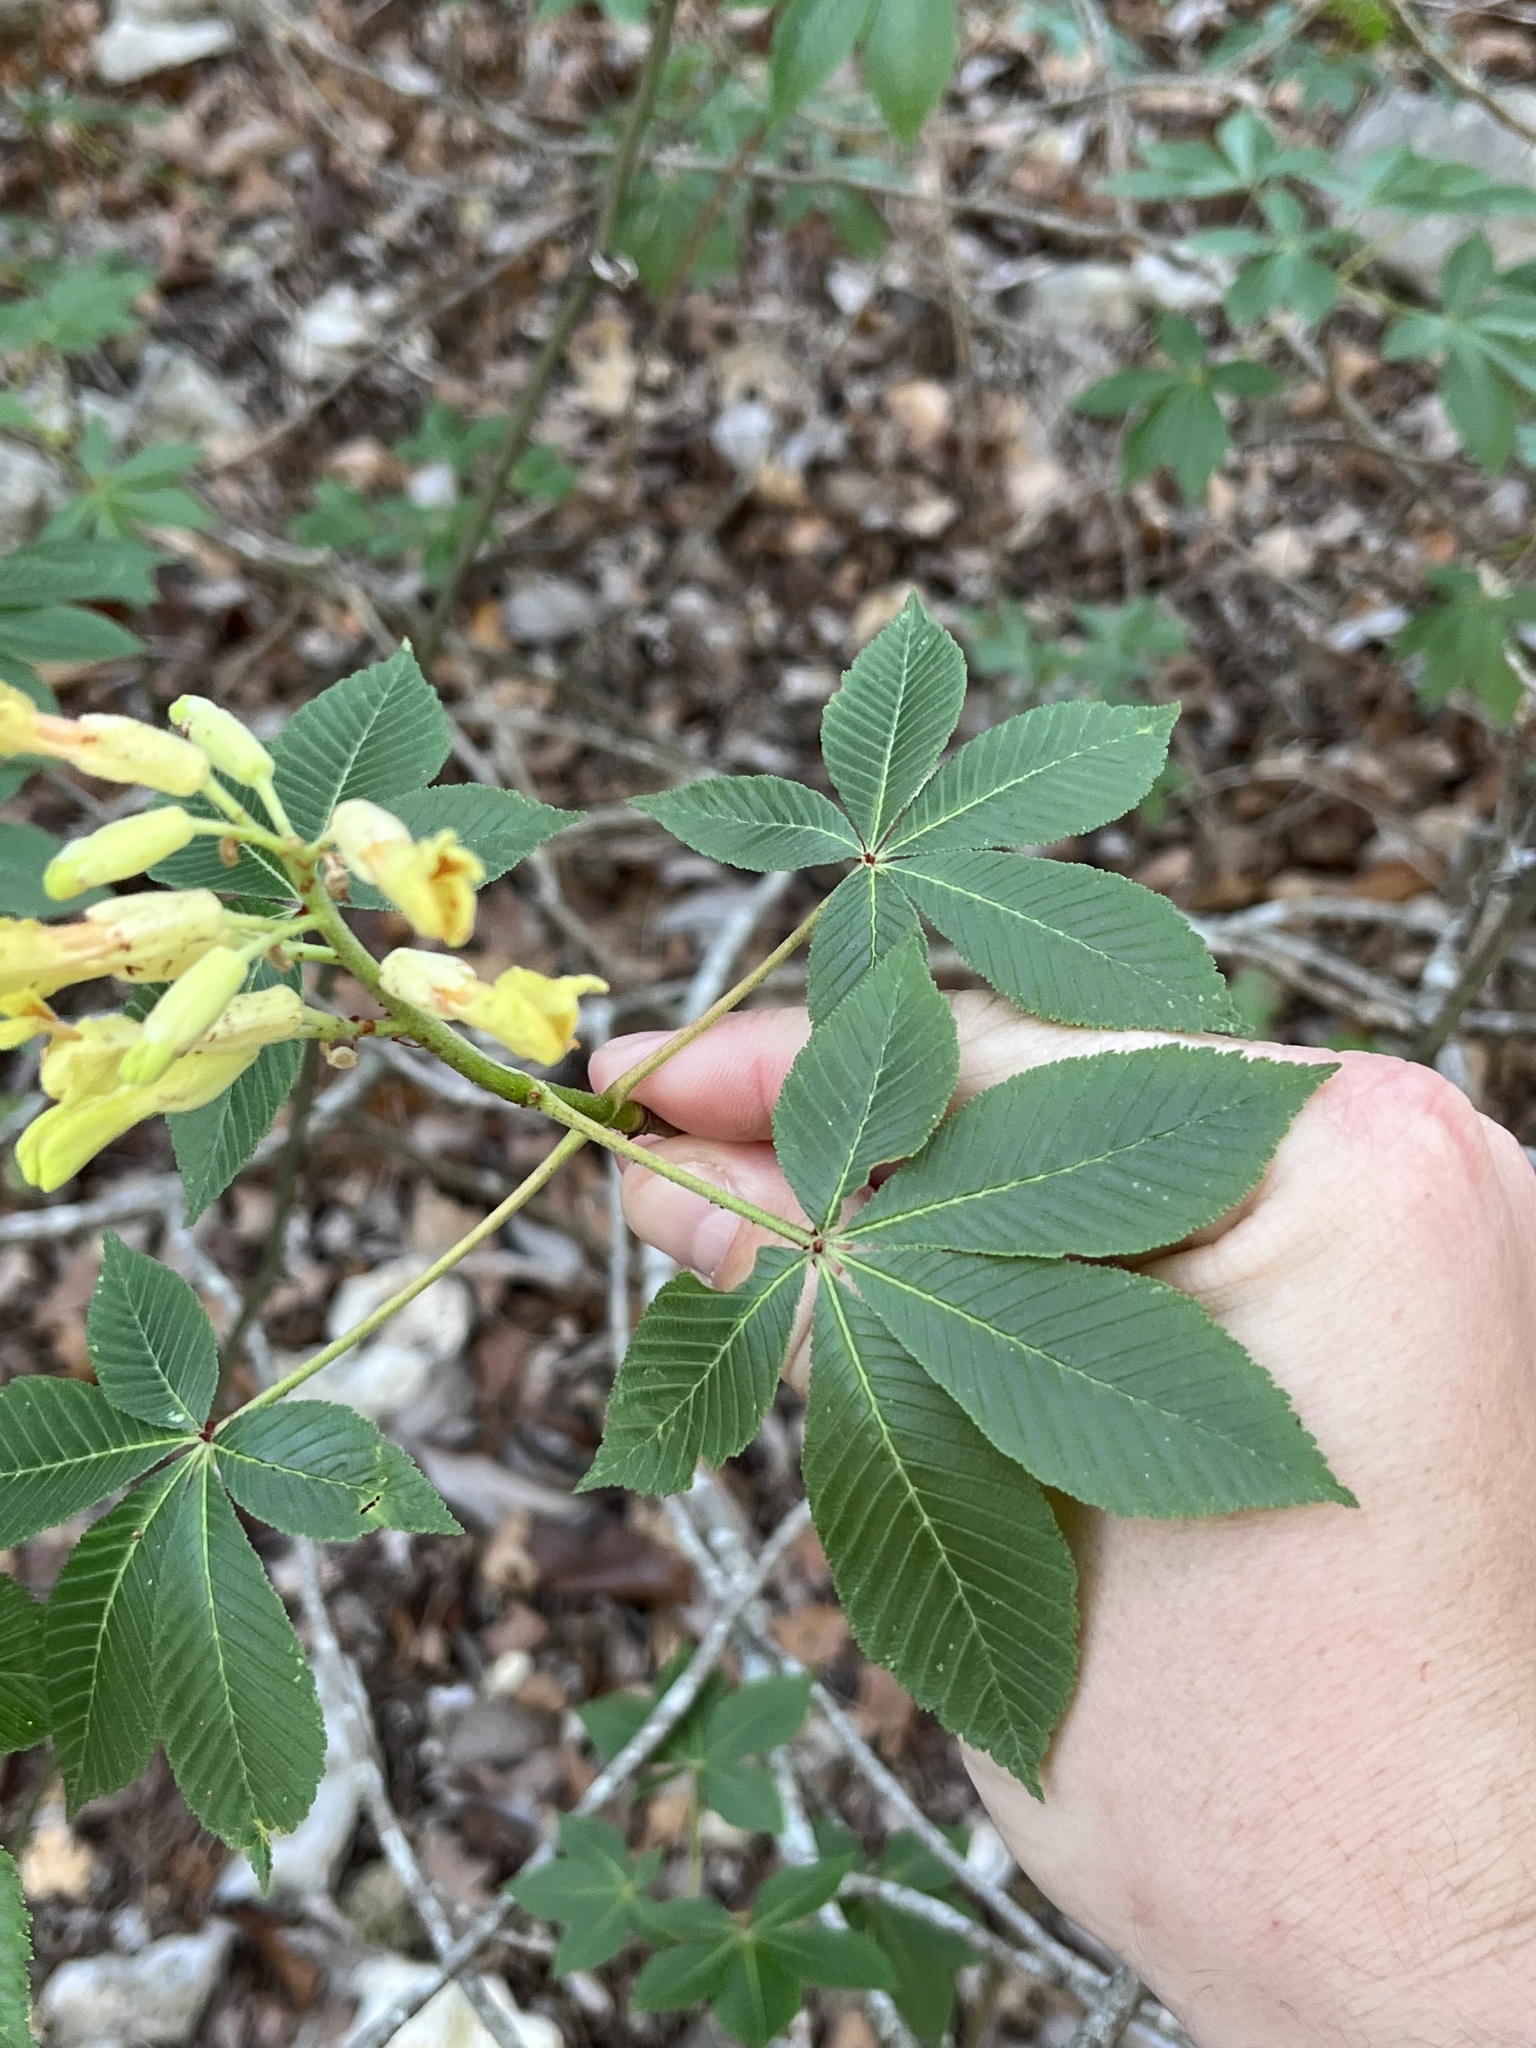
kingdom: Plantae
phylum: Tracheophyta
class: Magnoliopsida
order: Sapindales
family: Sapindaceae
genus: Aesculus
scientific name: Aesculus pavia
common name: Red buckeye
